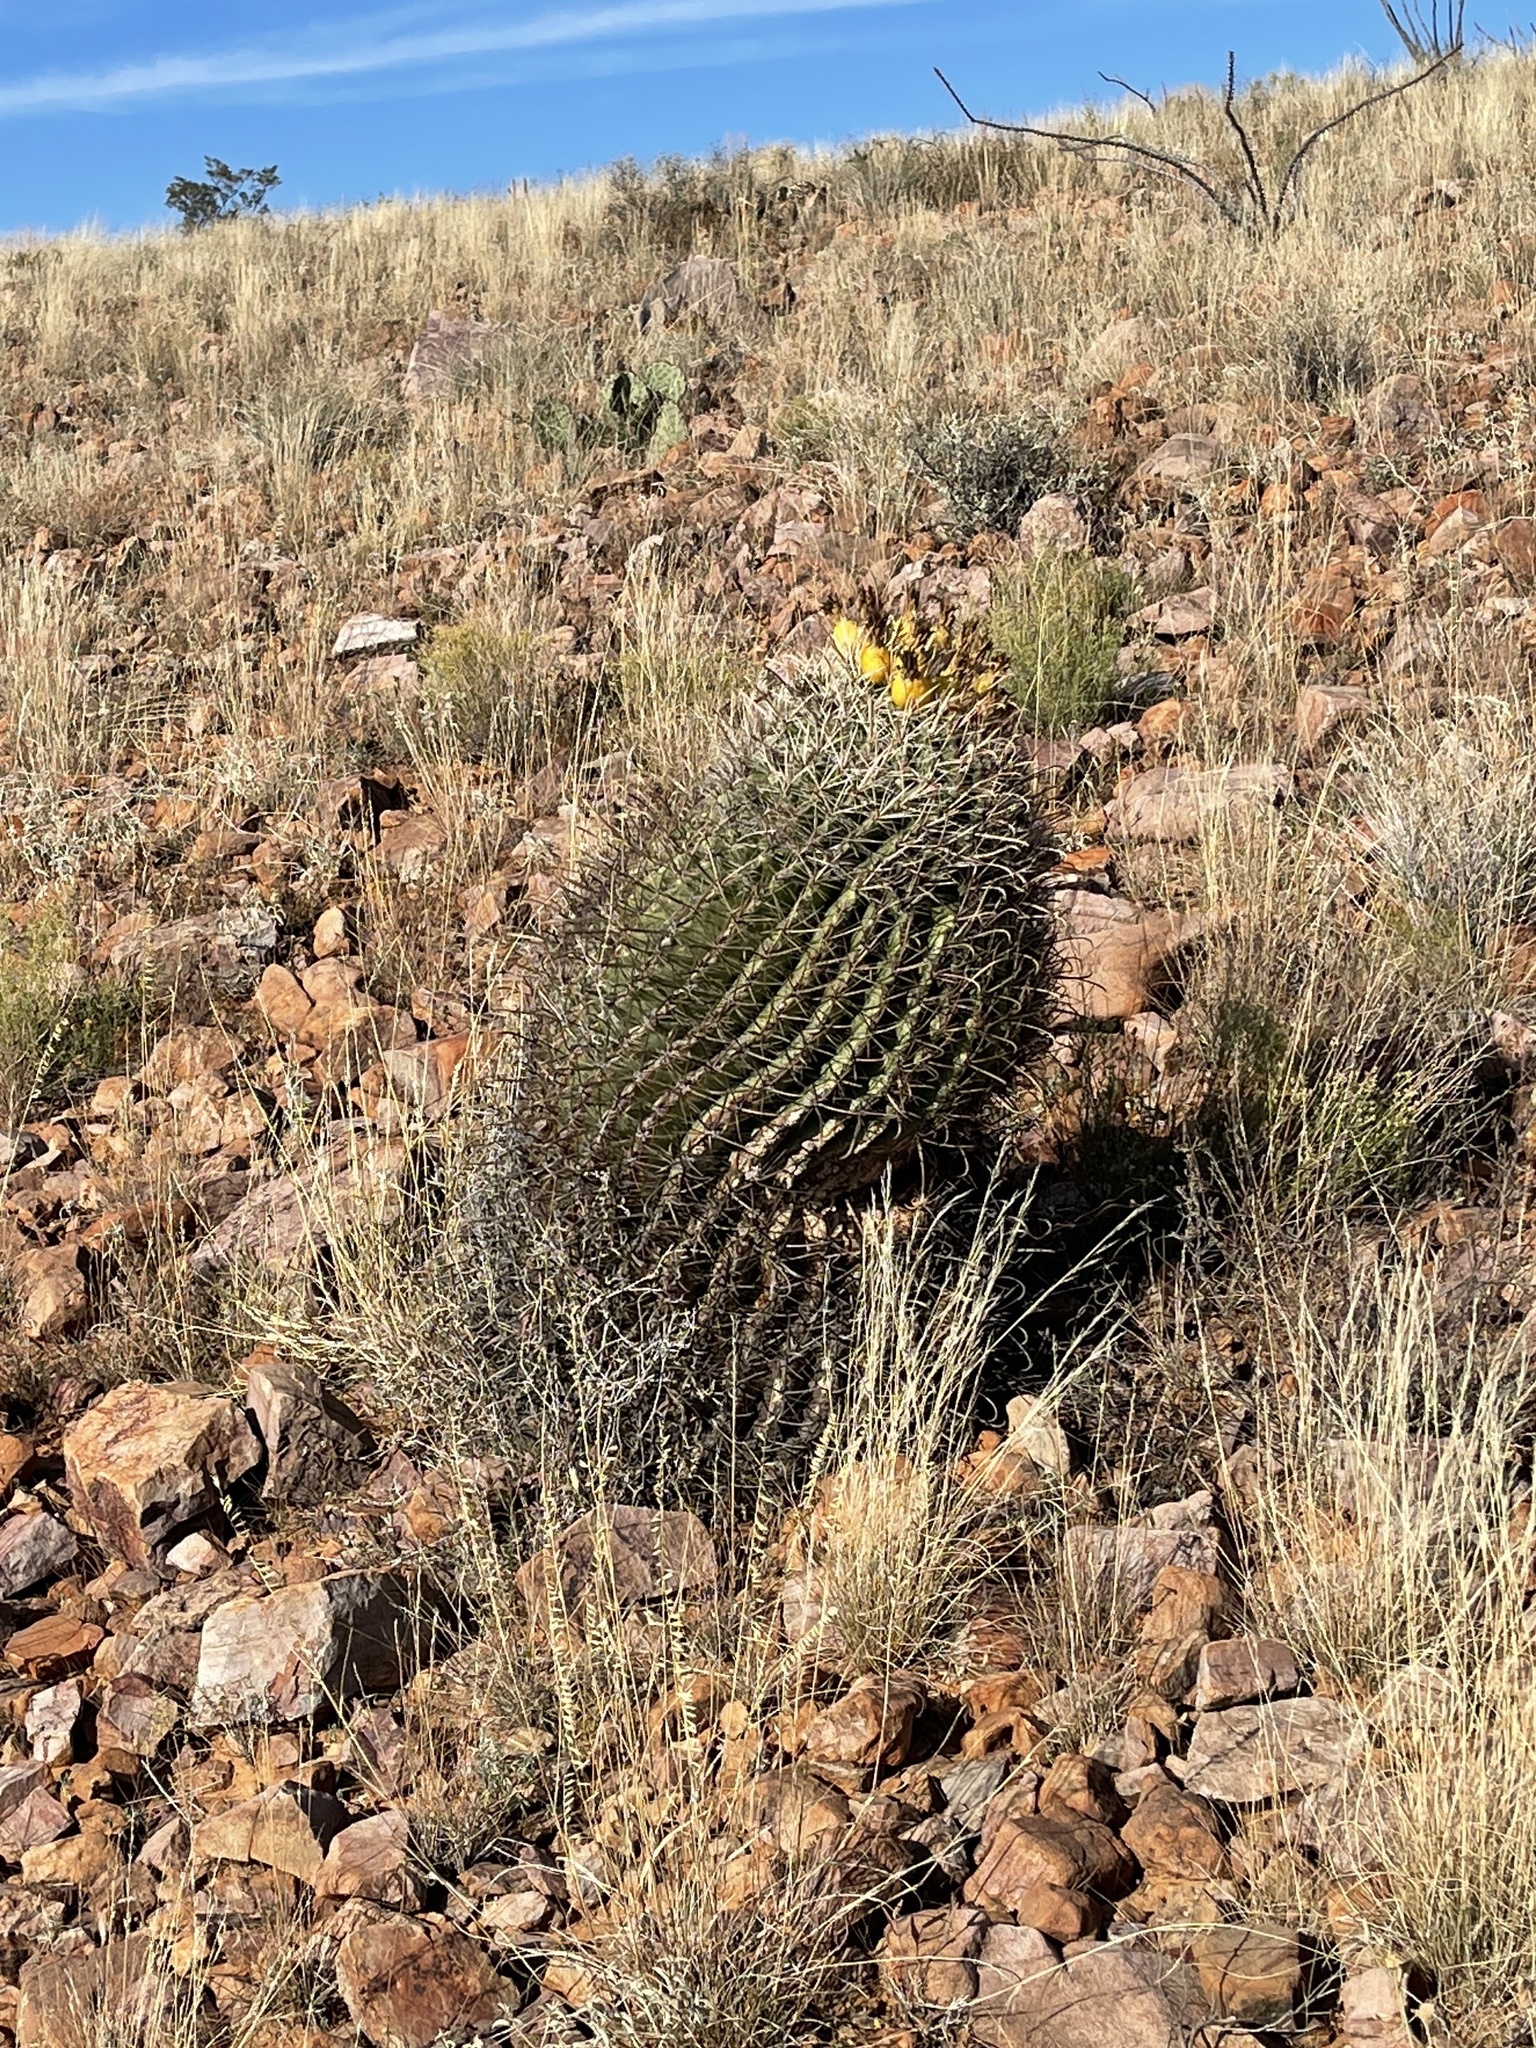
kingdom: Plantae
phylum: Tracheophyta
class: Magnoliopsida
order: Caryophyllales
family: Cactaceae
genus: Ferocactus
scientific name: Ferocactus wislizeni
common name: Candy barrel cactus
